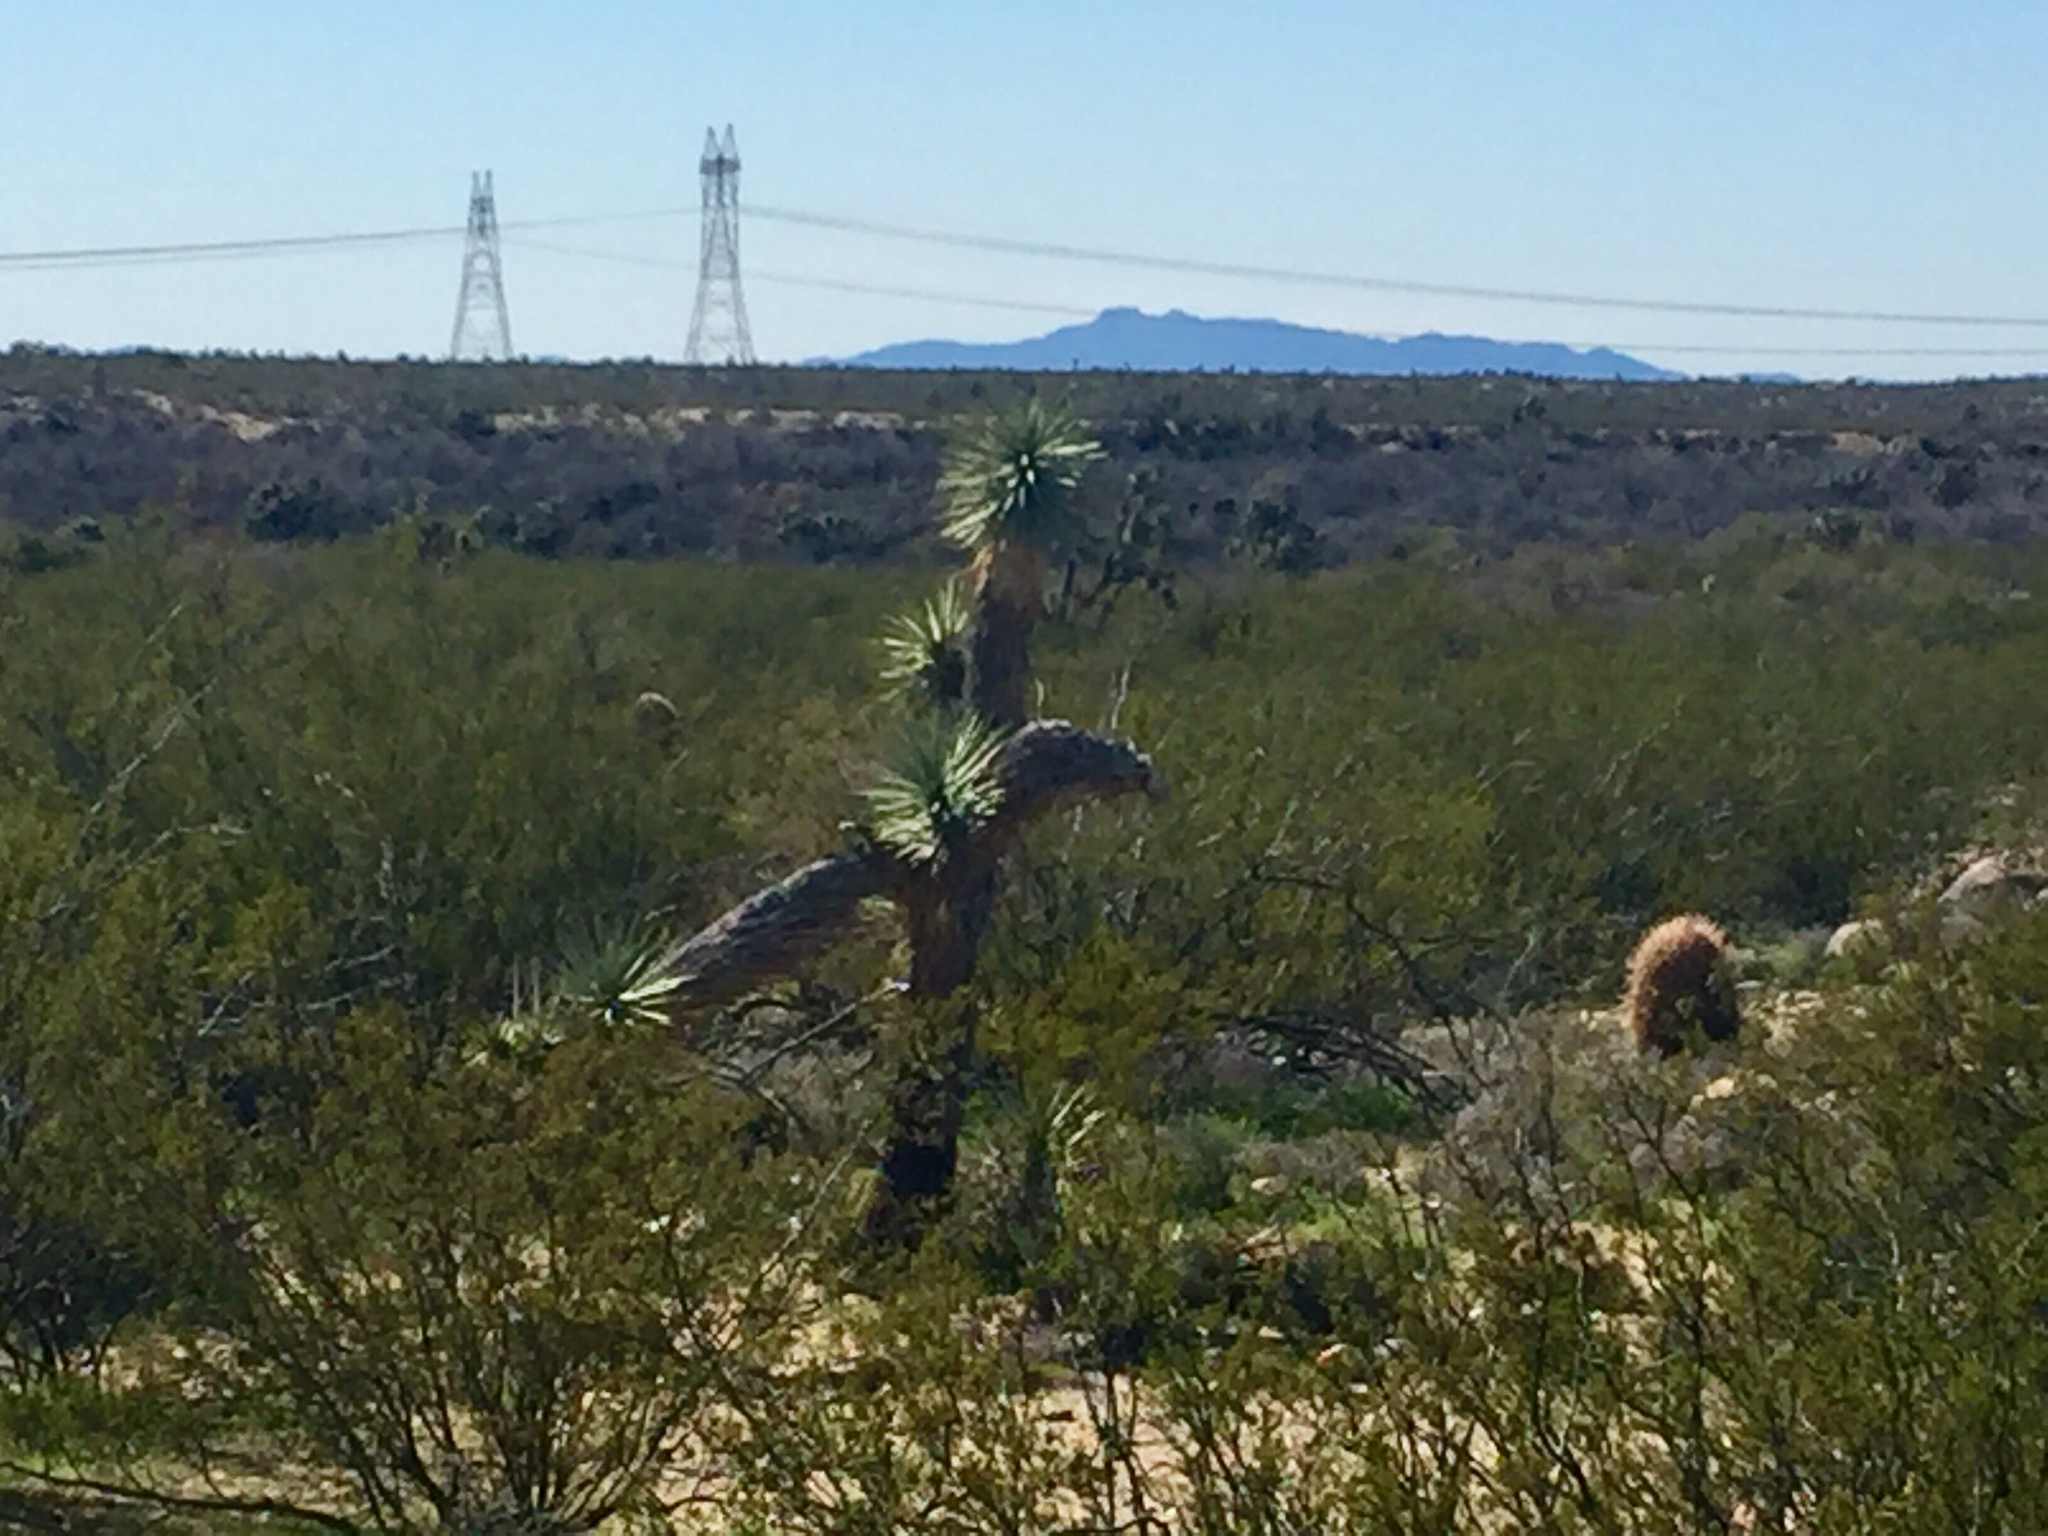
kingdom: Plantae
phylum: Tracheophyta
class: Liliopsida
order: Asparagales
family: Asparagaceae
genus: Yucca
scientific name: Yucca brevifolia
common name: Joshua tree
